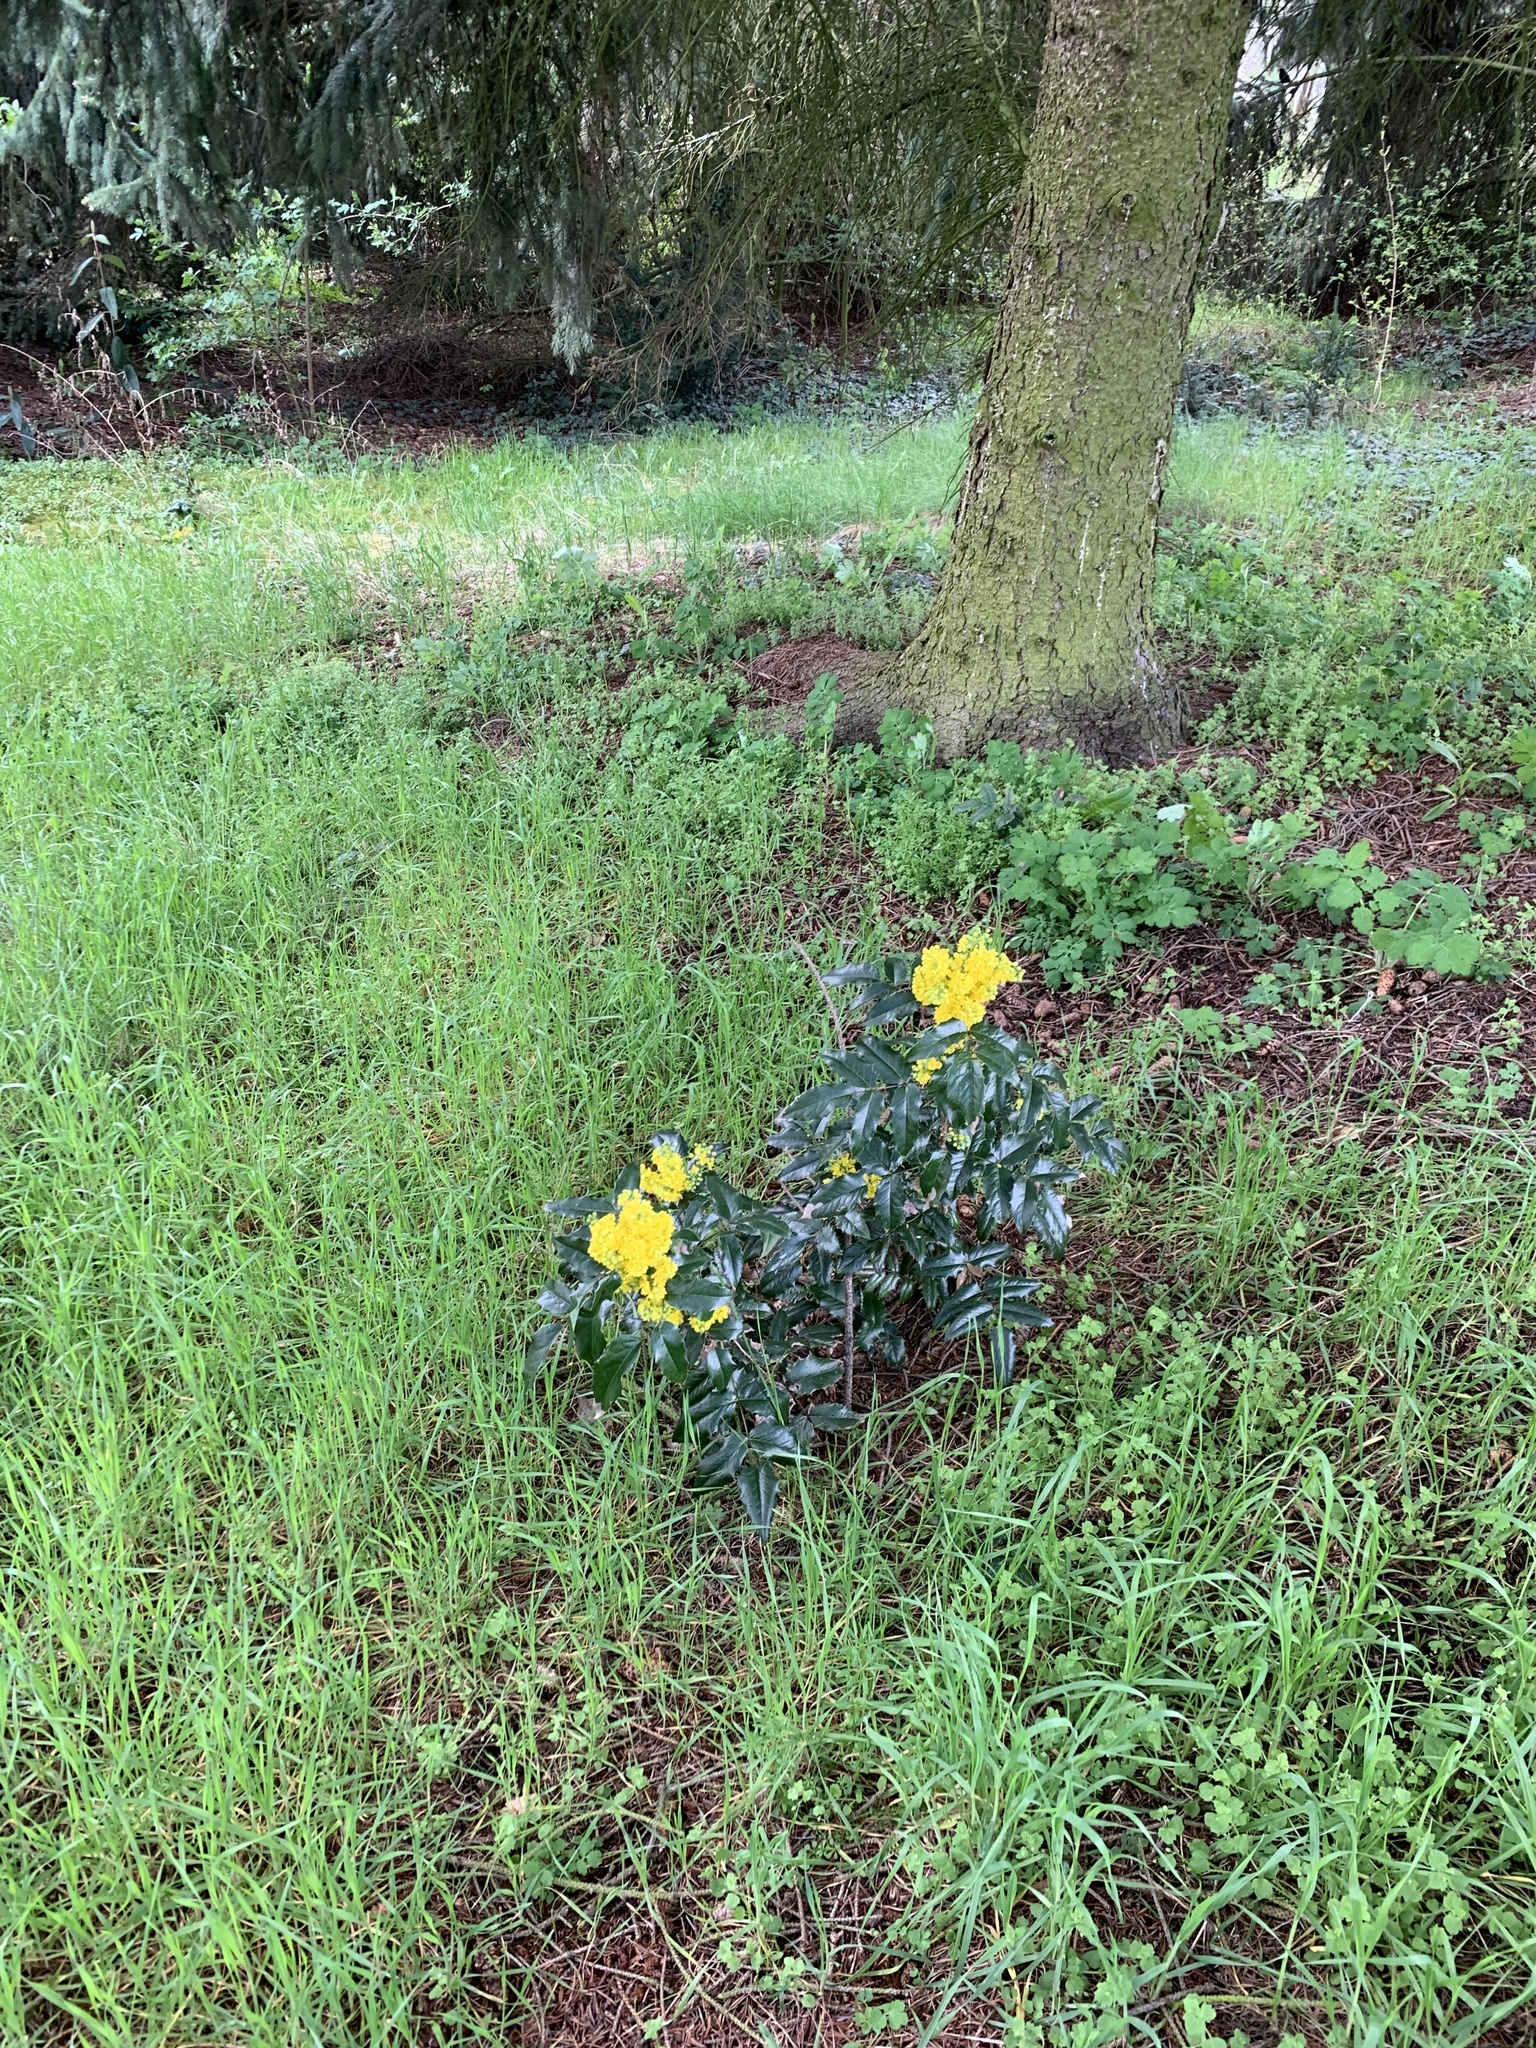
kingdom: Plantae
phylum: Tracheophyta
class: Magnoliopsida
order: Ranunculales
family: Berberidaceae
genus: Mahonia
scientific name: Mahonia aquifolium
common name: Oregon-grape
